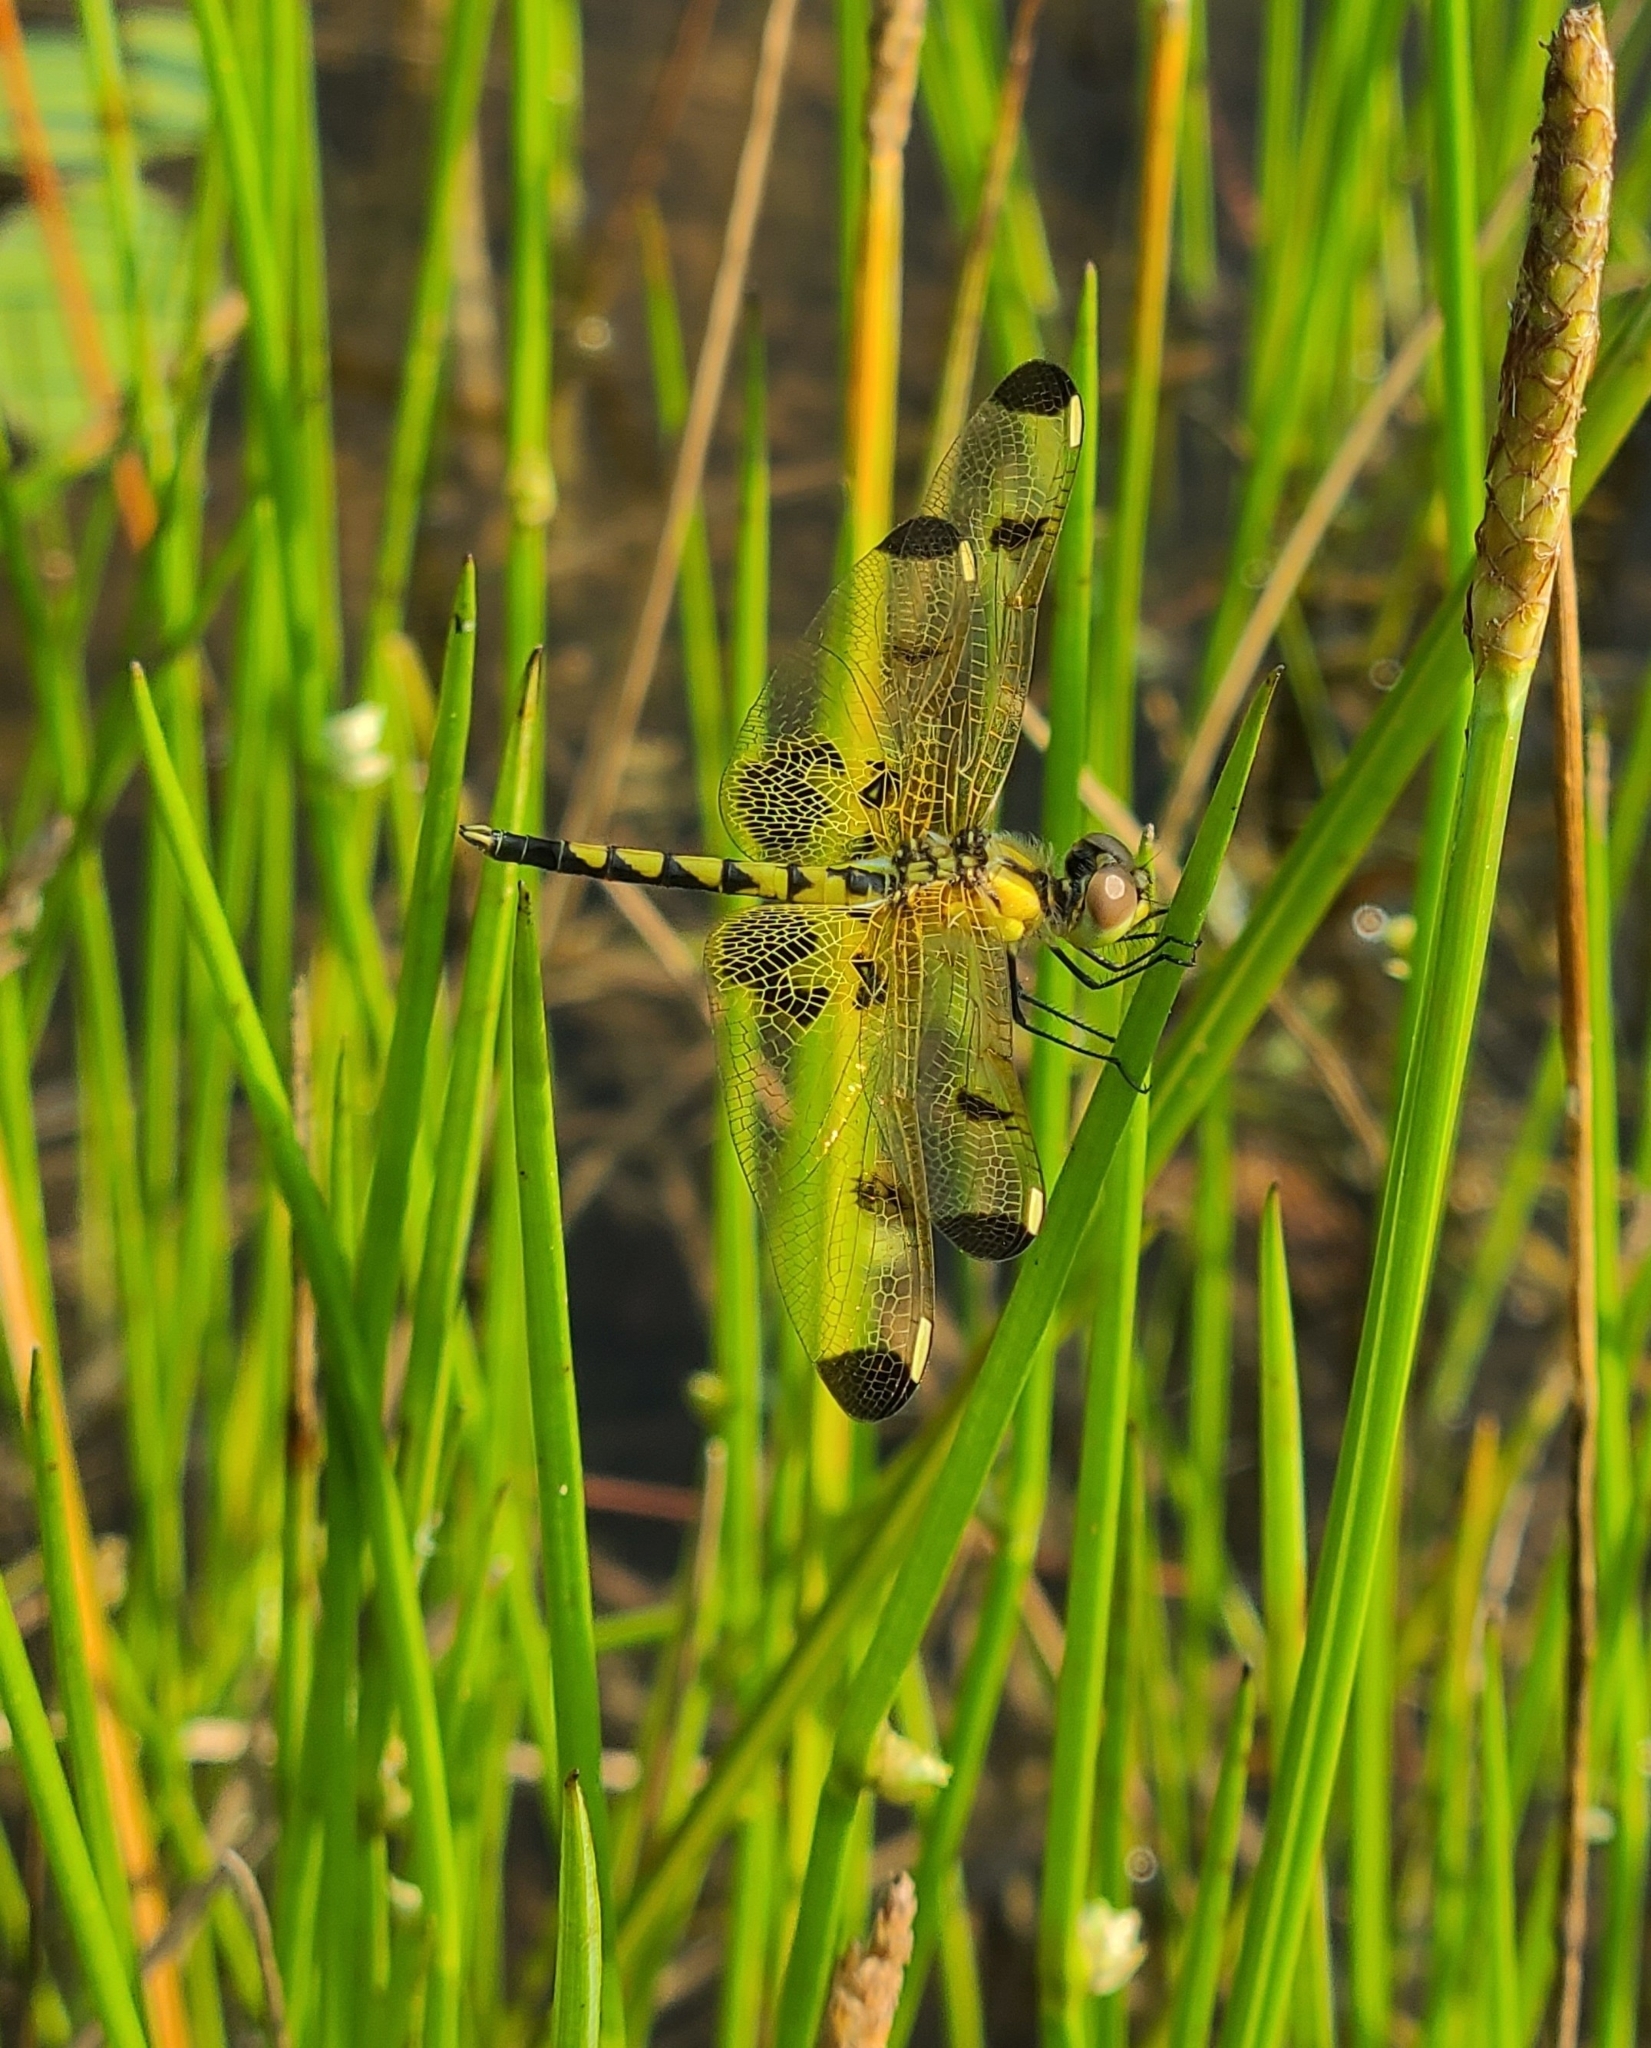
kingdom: Animalia
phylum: Arthropoda
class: Insecta
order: Odonata
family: Libellulidae
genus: Celithemis
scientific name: Celithemis elisa
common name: Calico pennant
